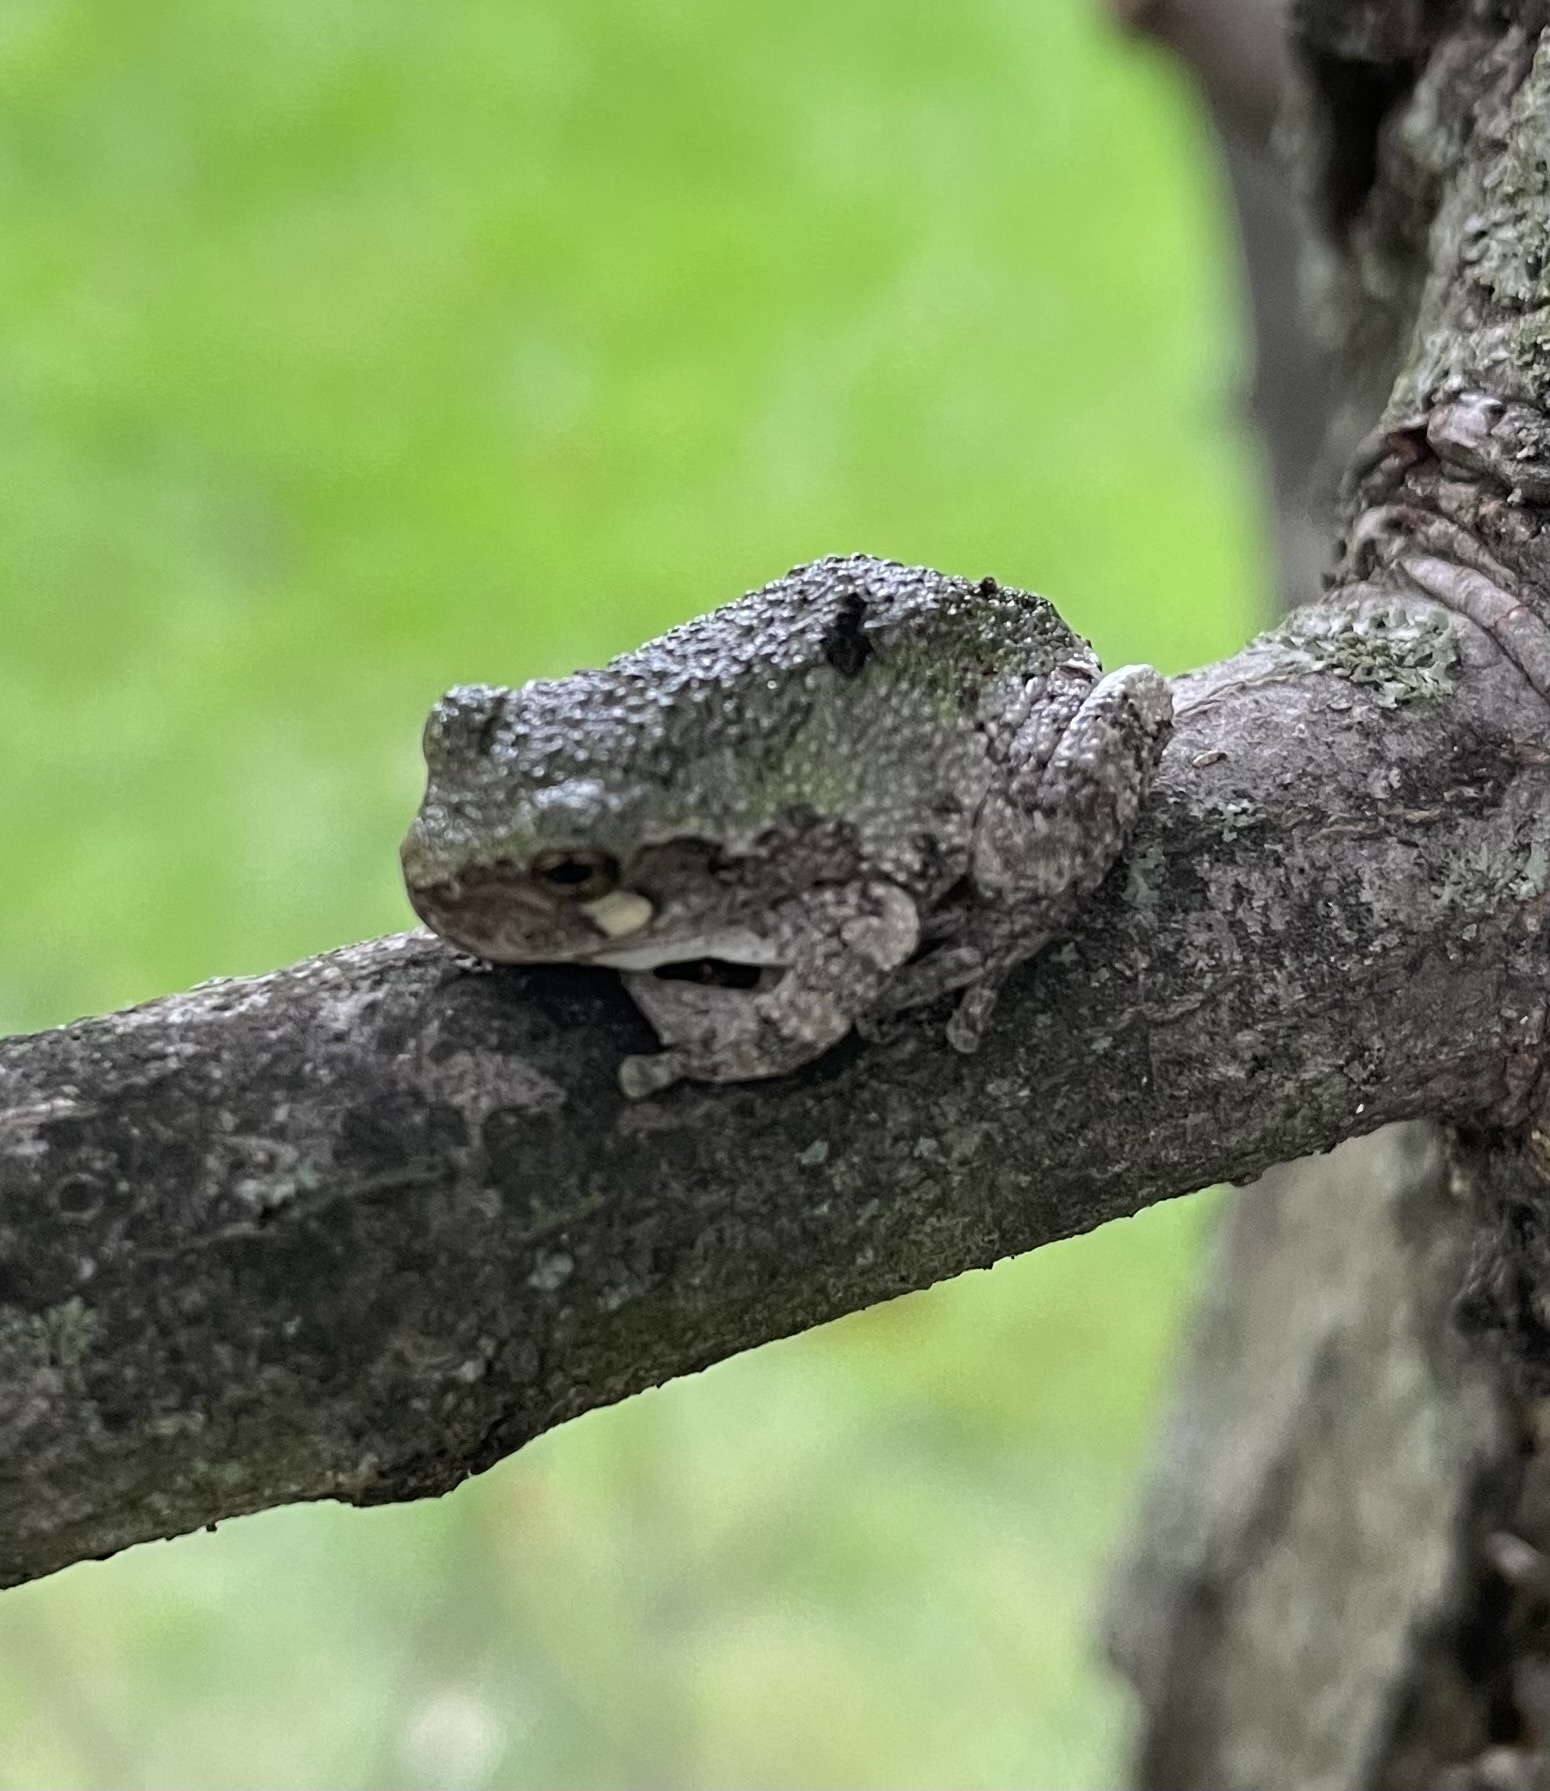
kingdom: Animalia
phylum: Chordata
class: Amphibia
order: Anura
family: Hylidae
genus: Dryophytes
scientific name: Dryophytes versicolor
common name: Gray treefrog
